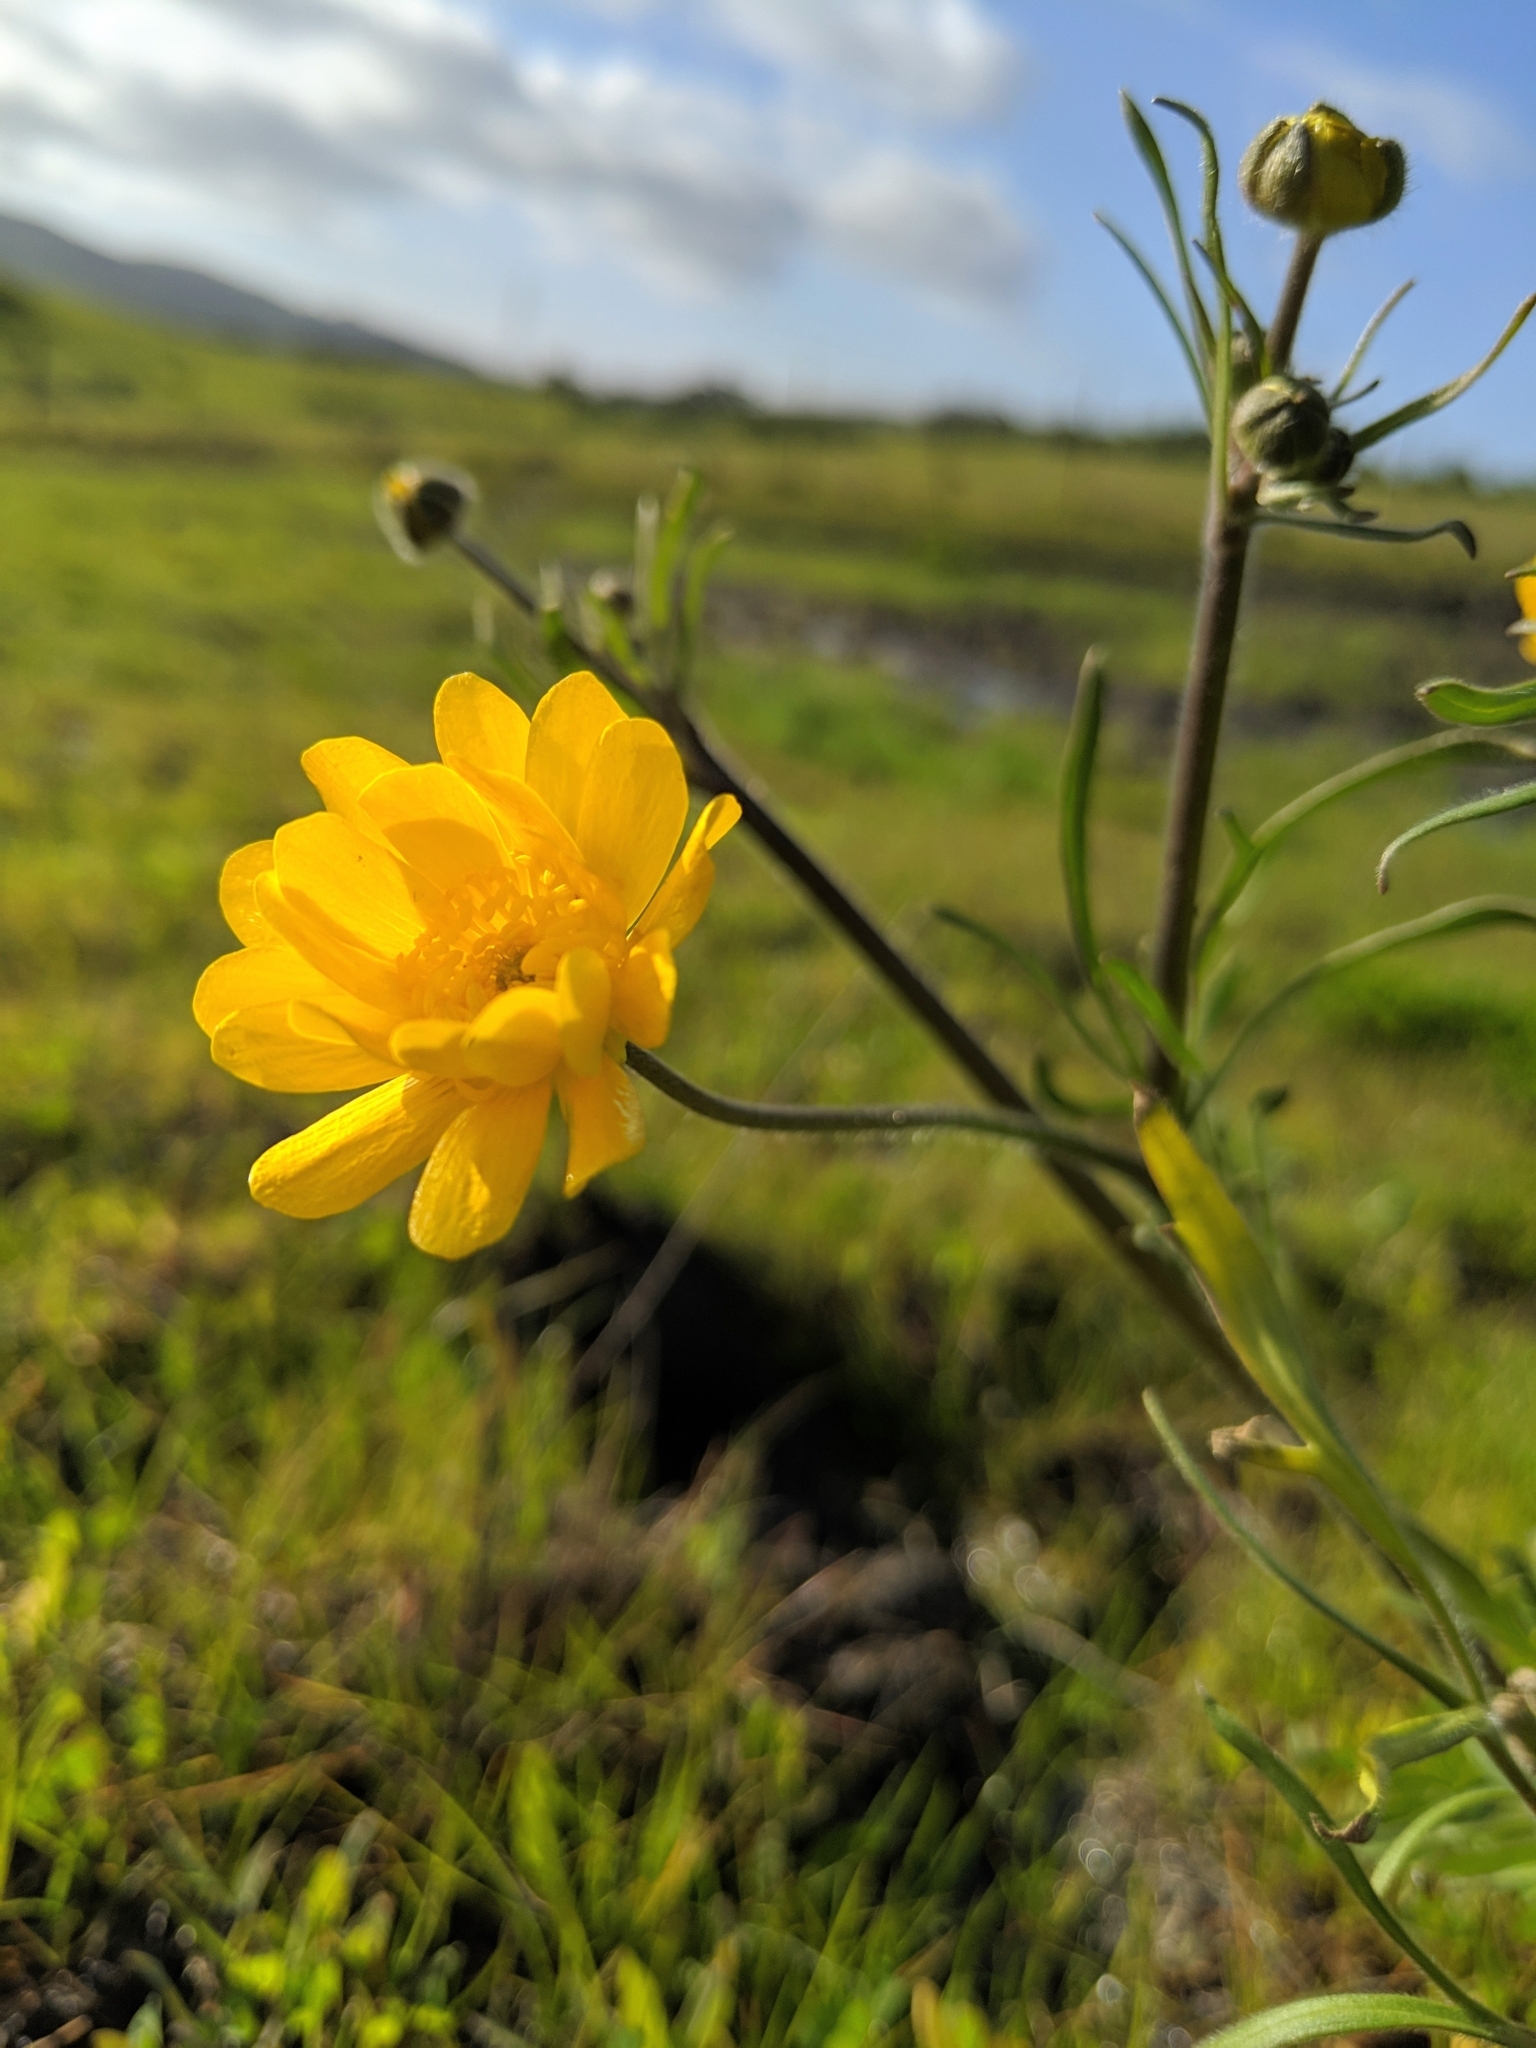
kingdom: Plantae
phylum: Tracheophyta
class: Magnoliopsida
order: Ranunculales
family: Ranunculaceae
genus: Ranunculus
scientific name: Ranunculus californicus
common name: California buttercup
